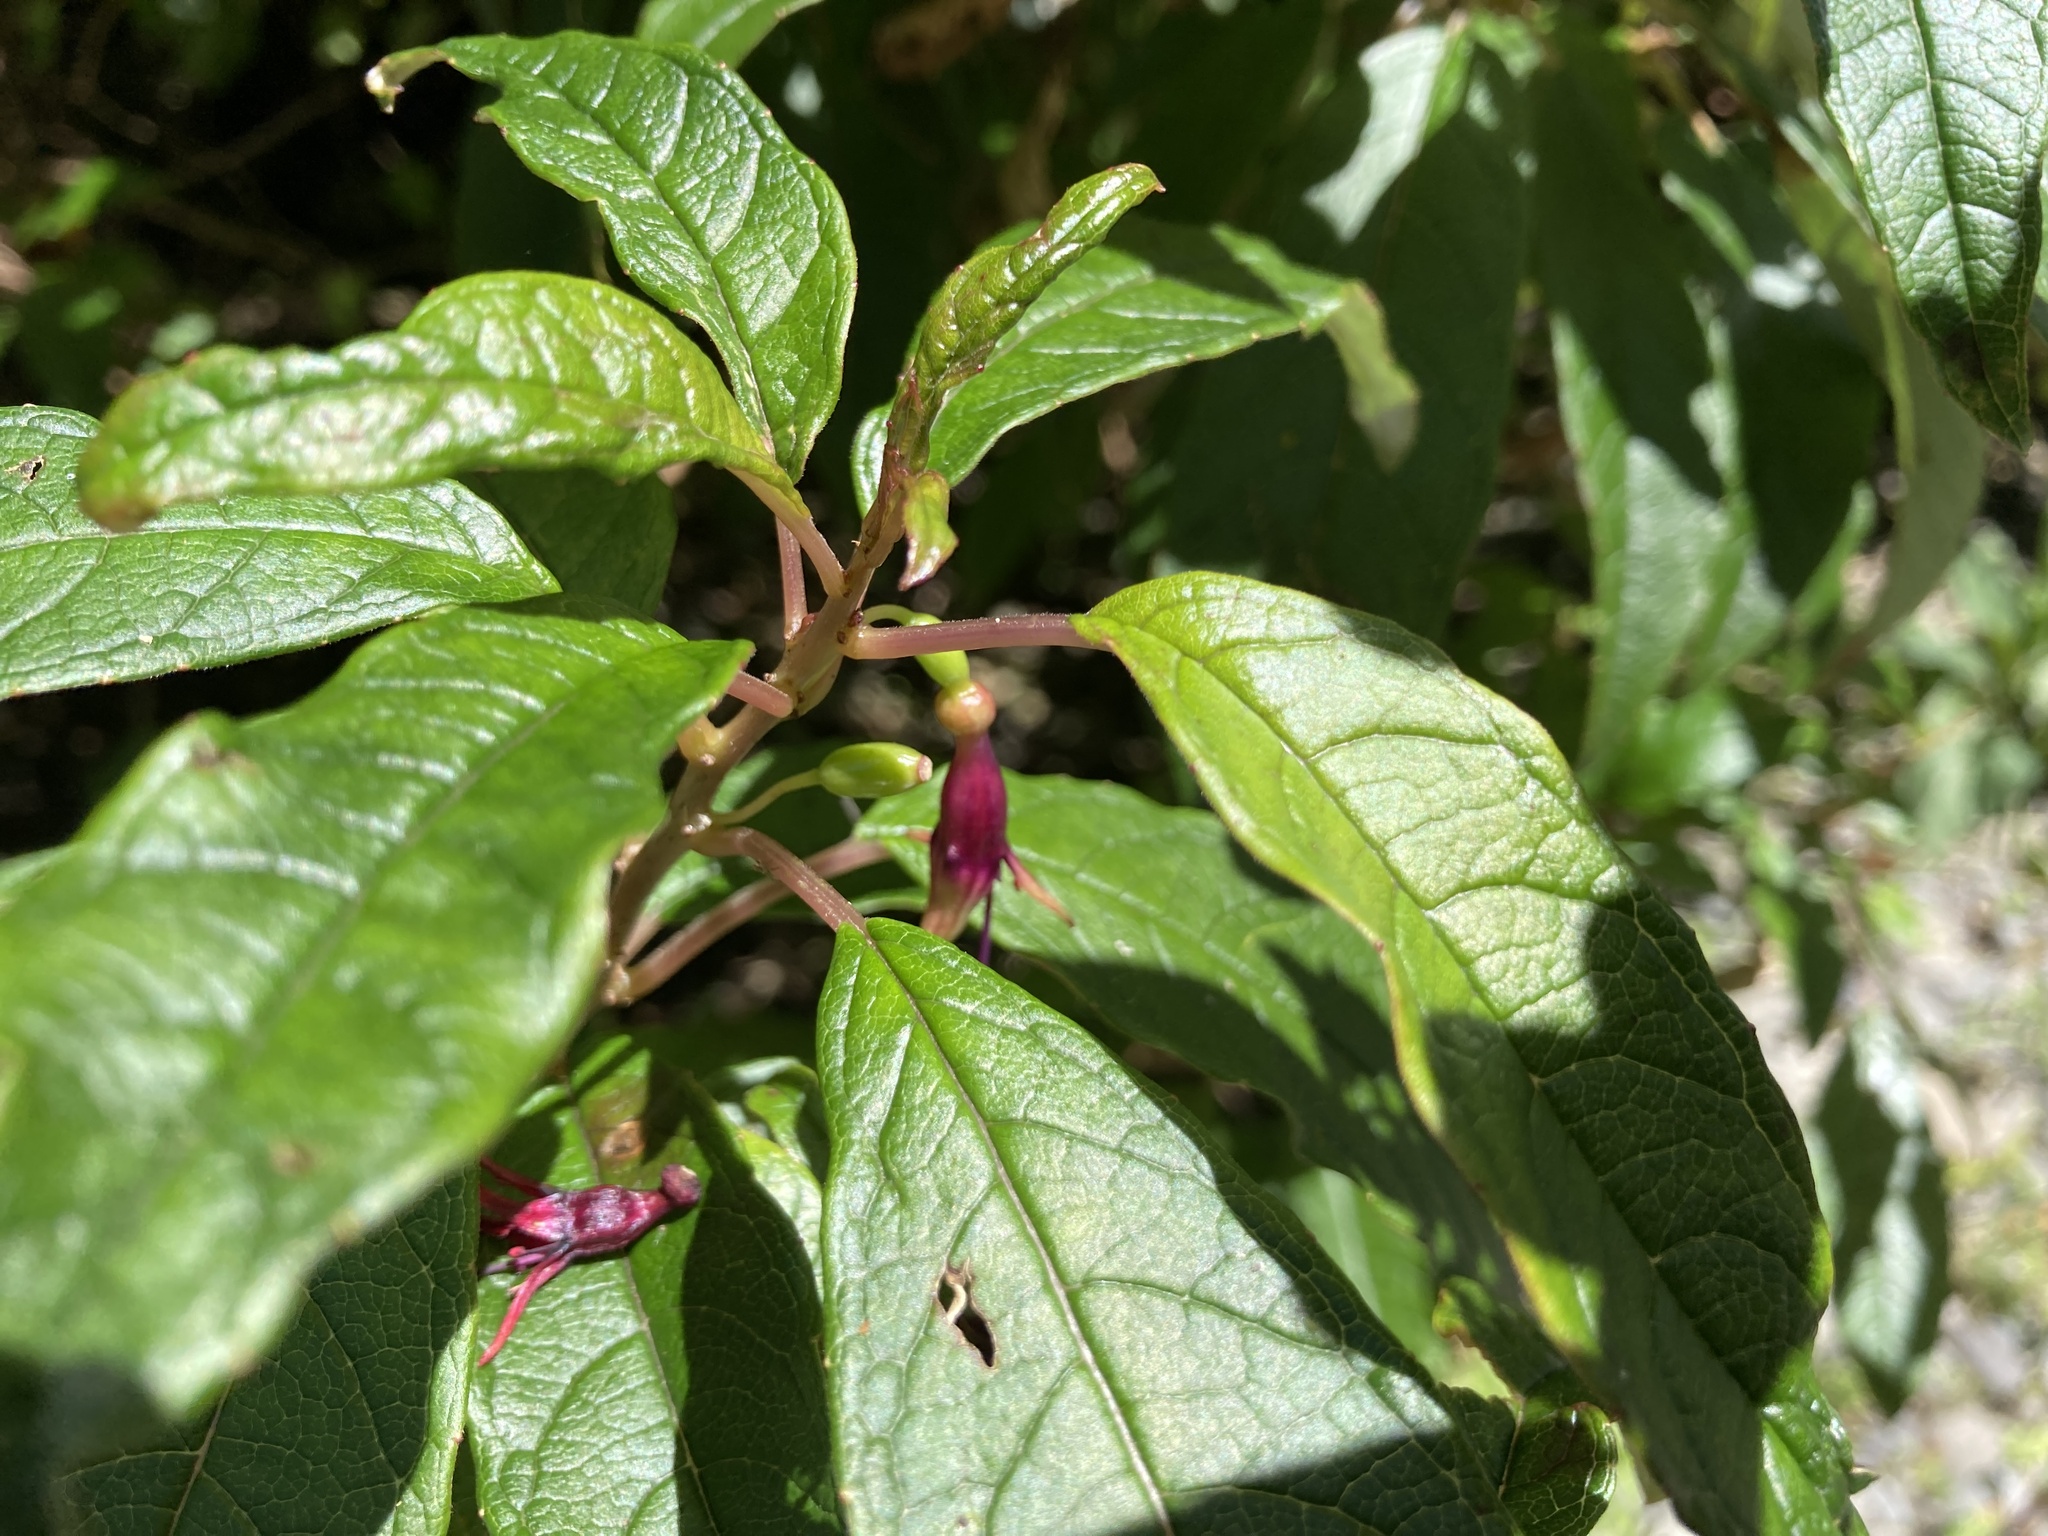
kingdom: Plantae
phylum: Tracheophyta
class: Magnoliopsida
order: Myrtales
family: Onagraceae
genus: Fuchsia
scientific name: Fuchsia excorticata
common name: Tree fuchsia
